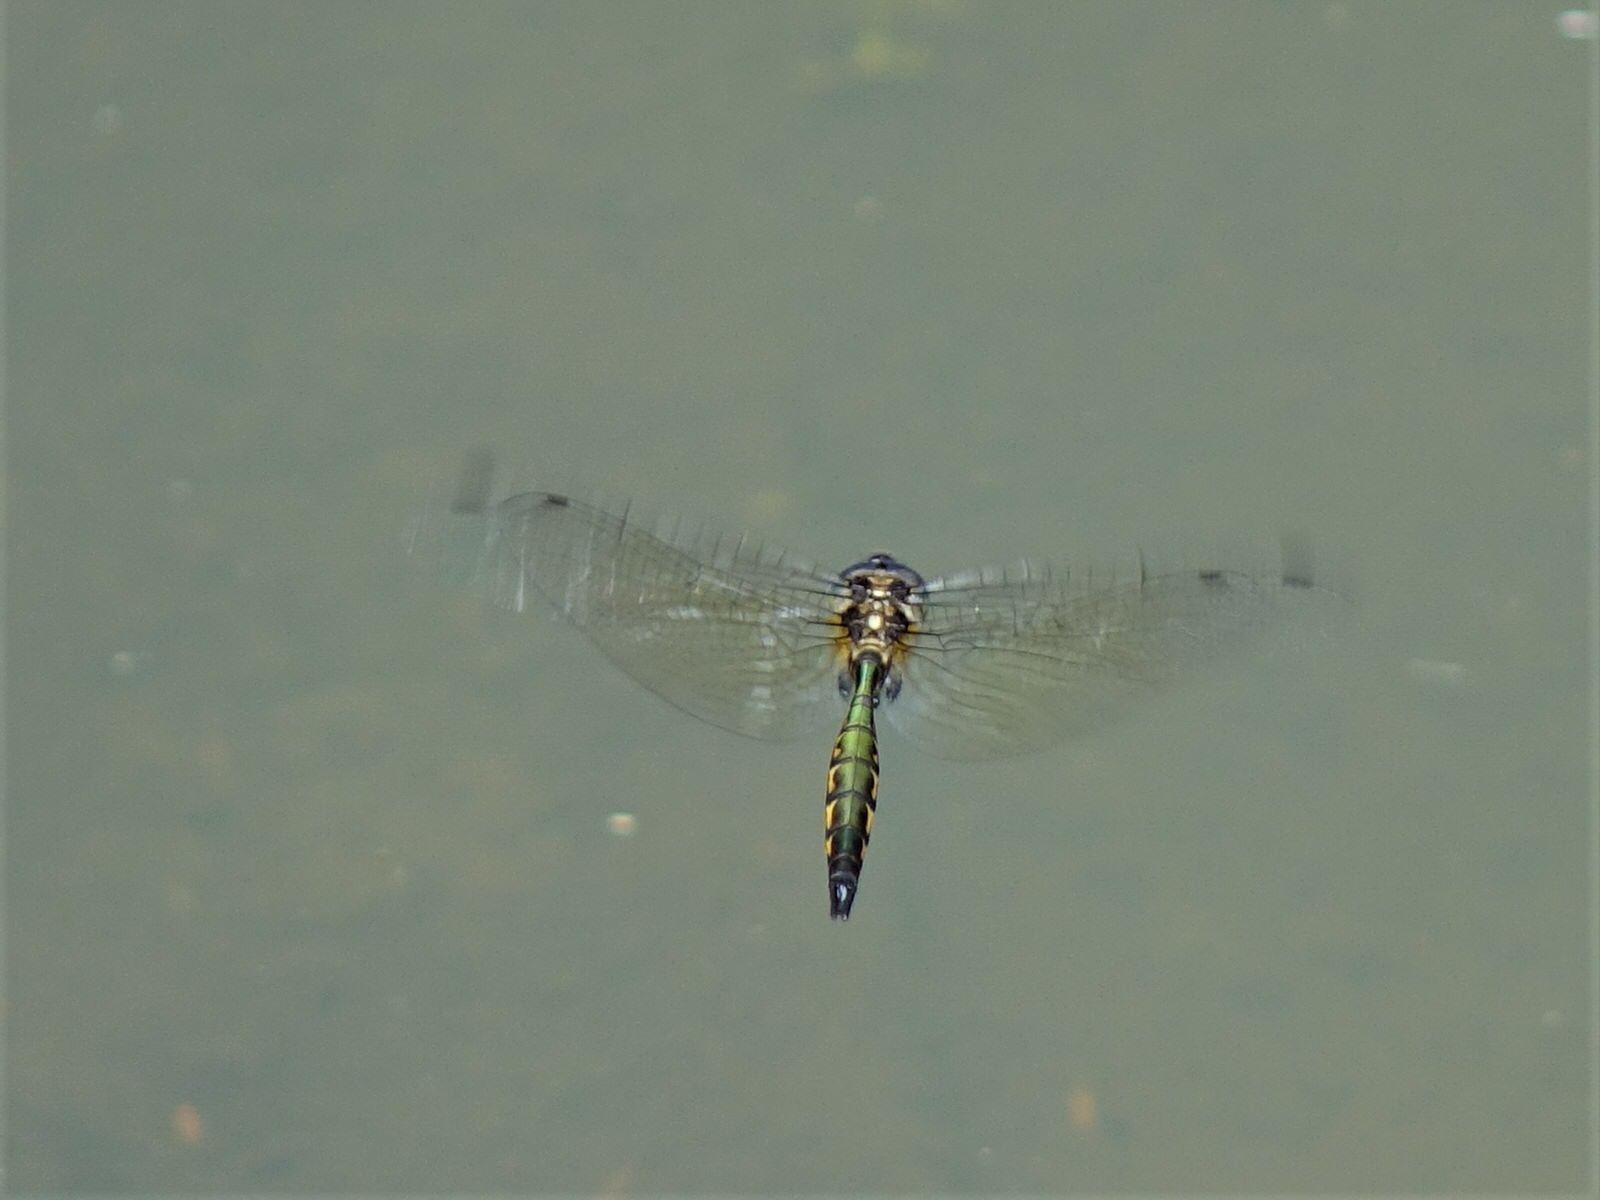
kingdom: Animalia
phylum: Arthropoda
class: Insecta
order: Odonata
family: Corduliidae
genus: Hemicordulia
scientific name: Hemicordulia australiae
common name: Sentry dragonfly
